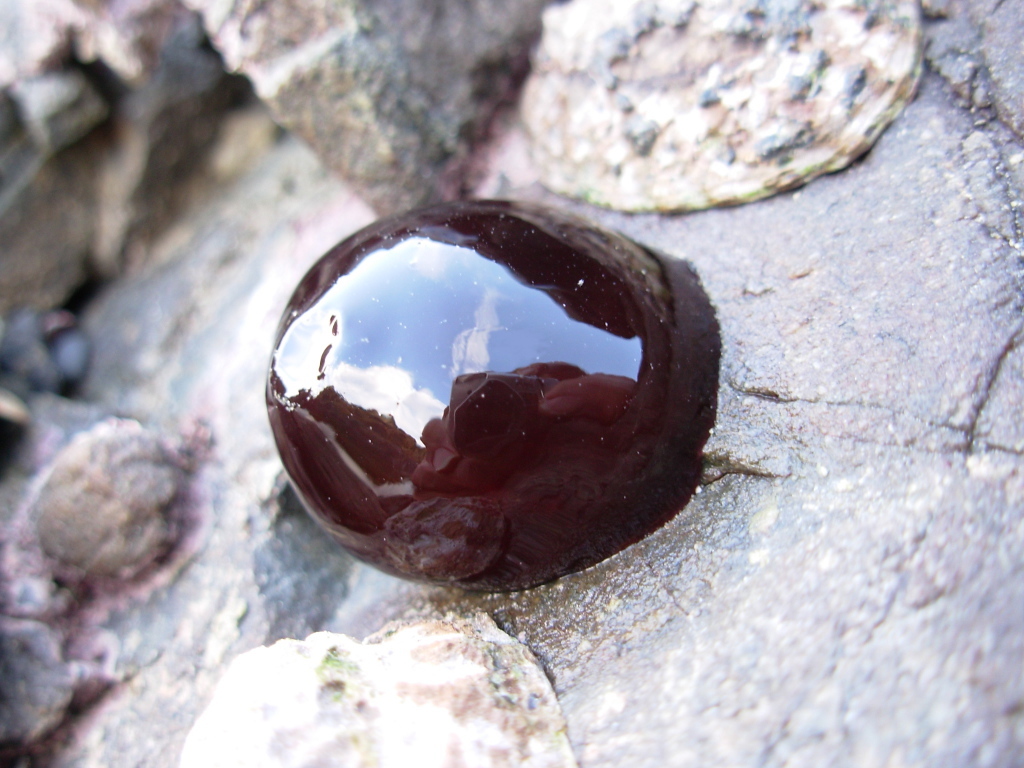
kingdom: Animalia
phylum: Cnidaria
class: Anthozoa
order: Actiniaria
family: Actiniidae
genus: Actinia
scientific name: Actinia tenebrosa
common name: Waratah anemone
